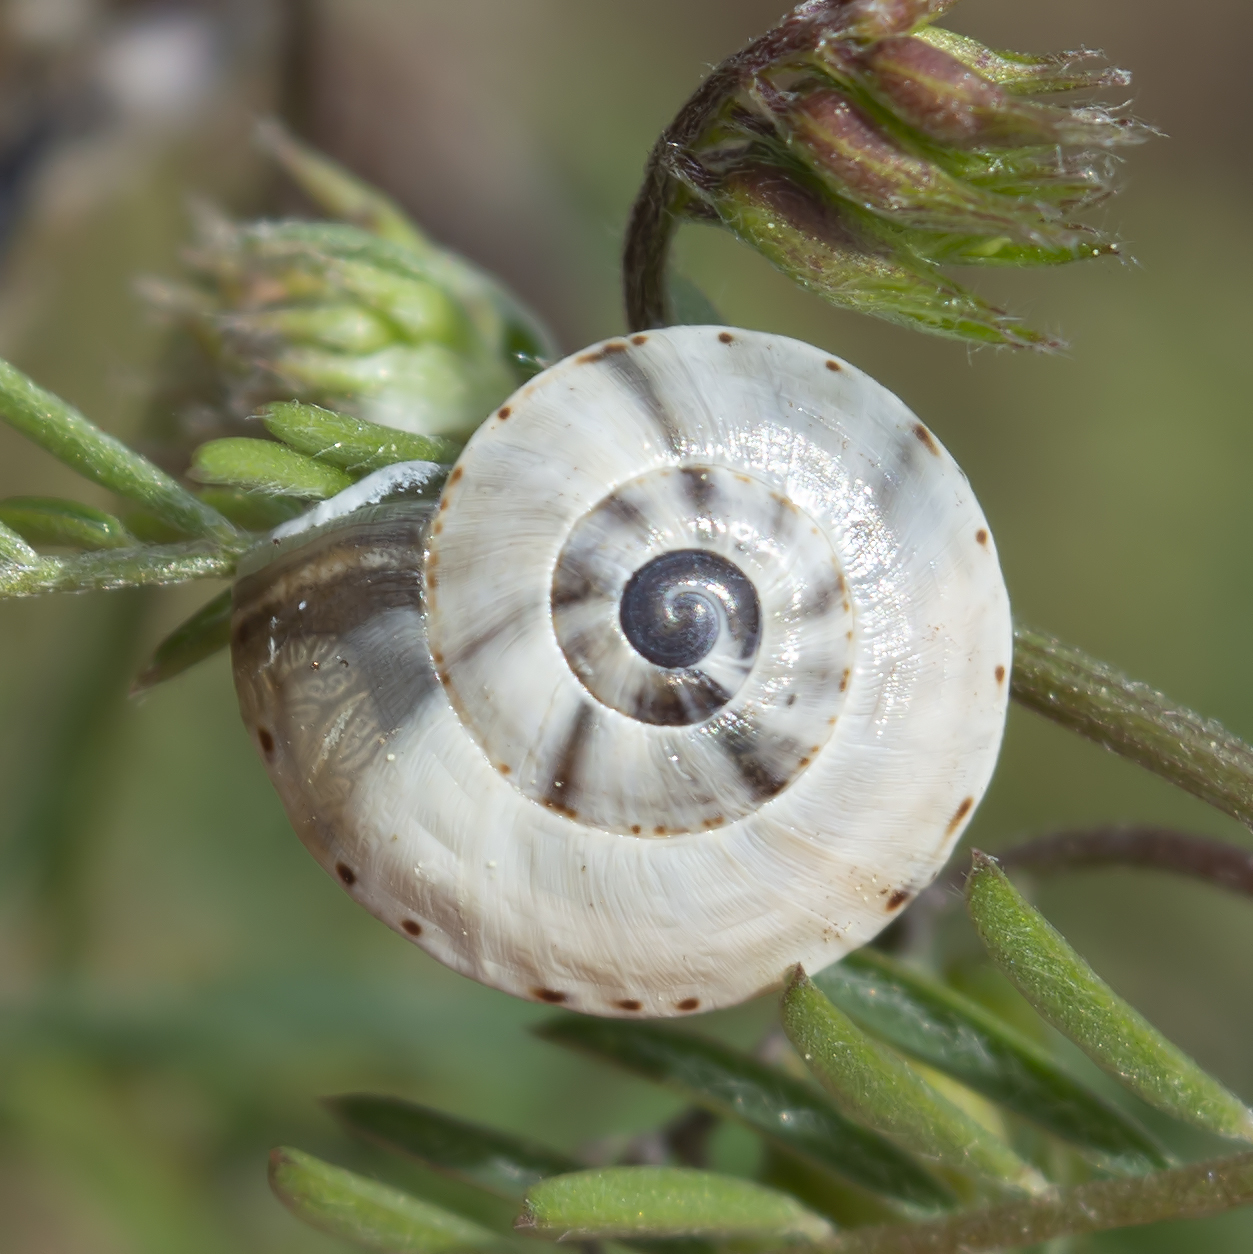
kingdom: Animalia
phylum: Mollusca
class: Gastropoda
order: Stylommatophora
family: Helicidae
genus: Theba
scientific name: Theba pisana
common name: White snail
